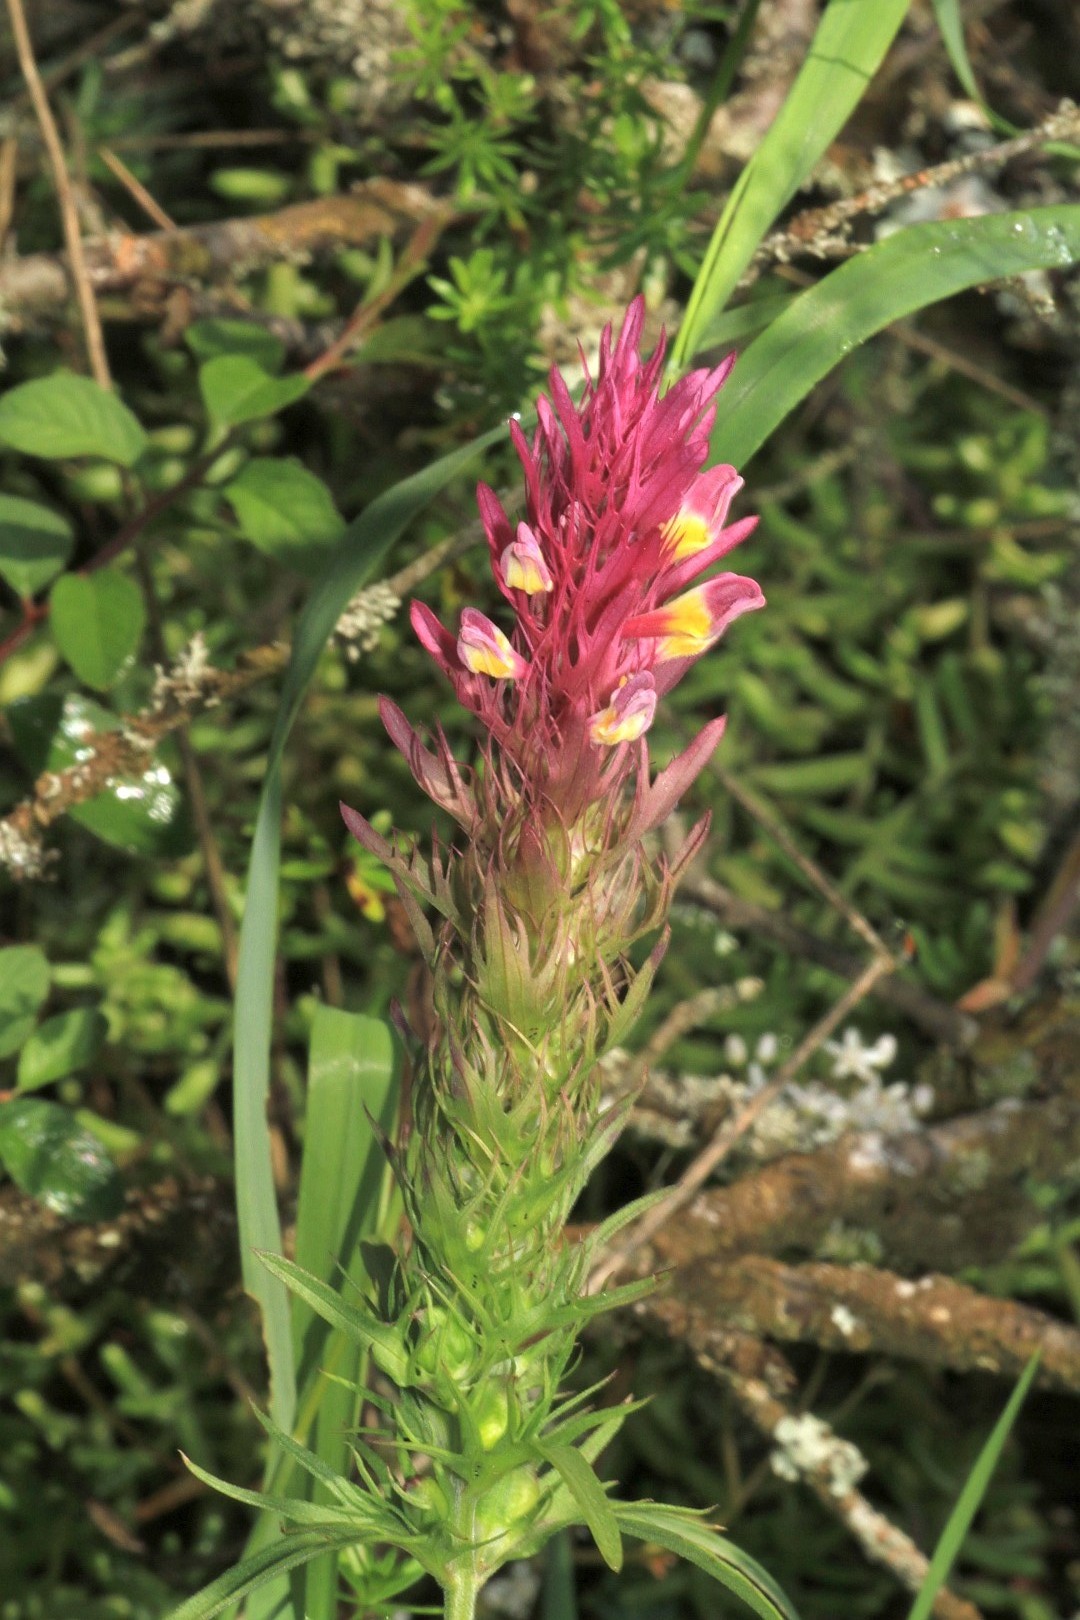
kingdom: Plantae
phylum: Tracheophyta
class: Magnoliopsida
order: Lamiales
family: Orobanchaceae
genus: Melampyrum
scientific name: Melampyrum arvense
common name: Field cow-wheat
